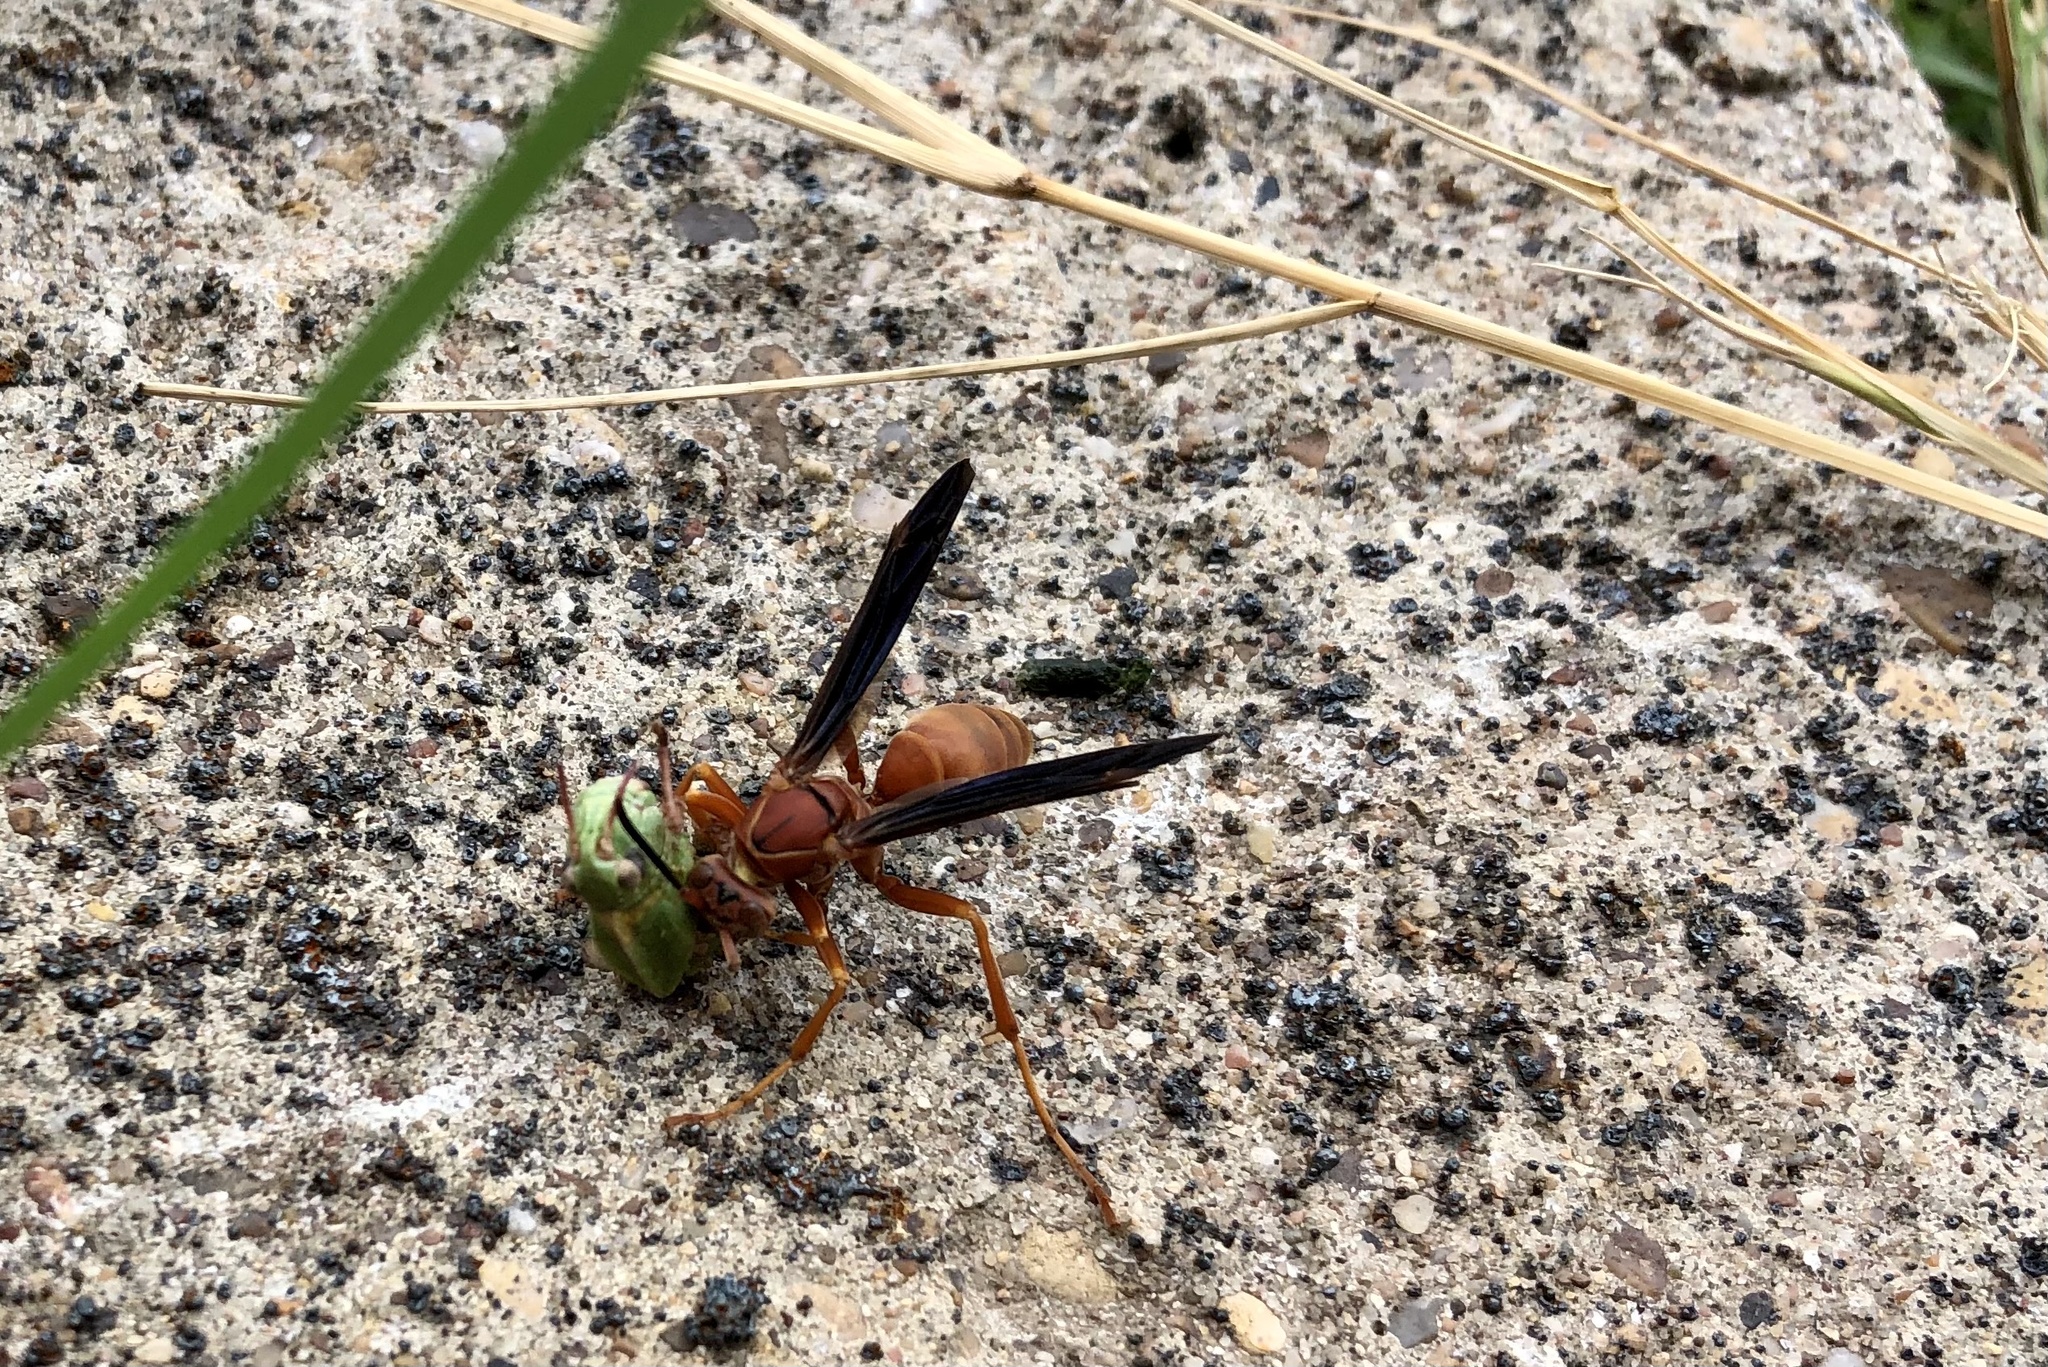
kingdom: Animalia
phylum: Arthropoda
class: Insecta
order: Hymenoptera
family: Vespidae
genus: Fuscopolistes
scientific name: Fuscopolistes
